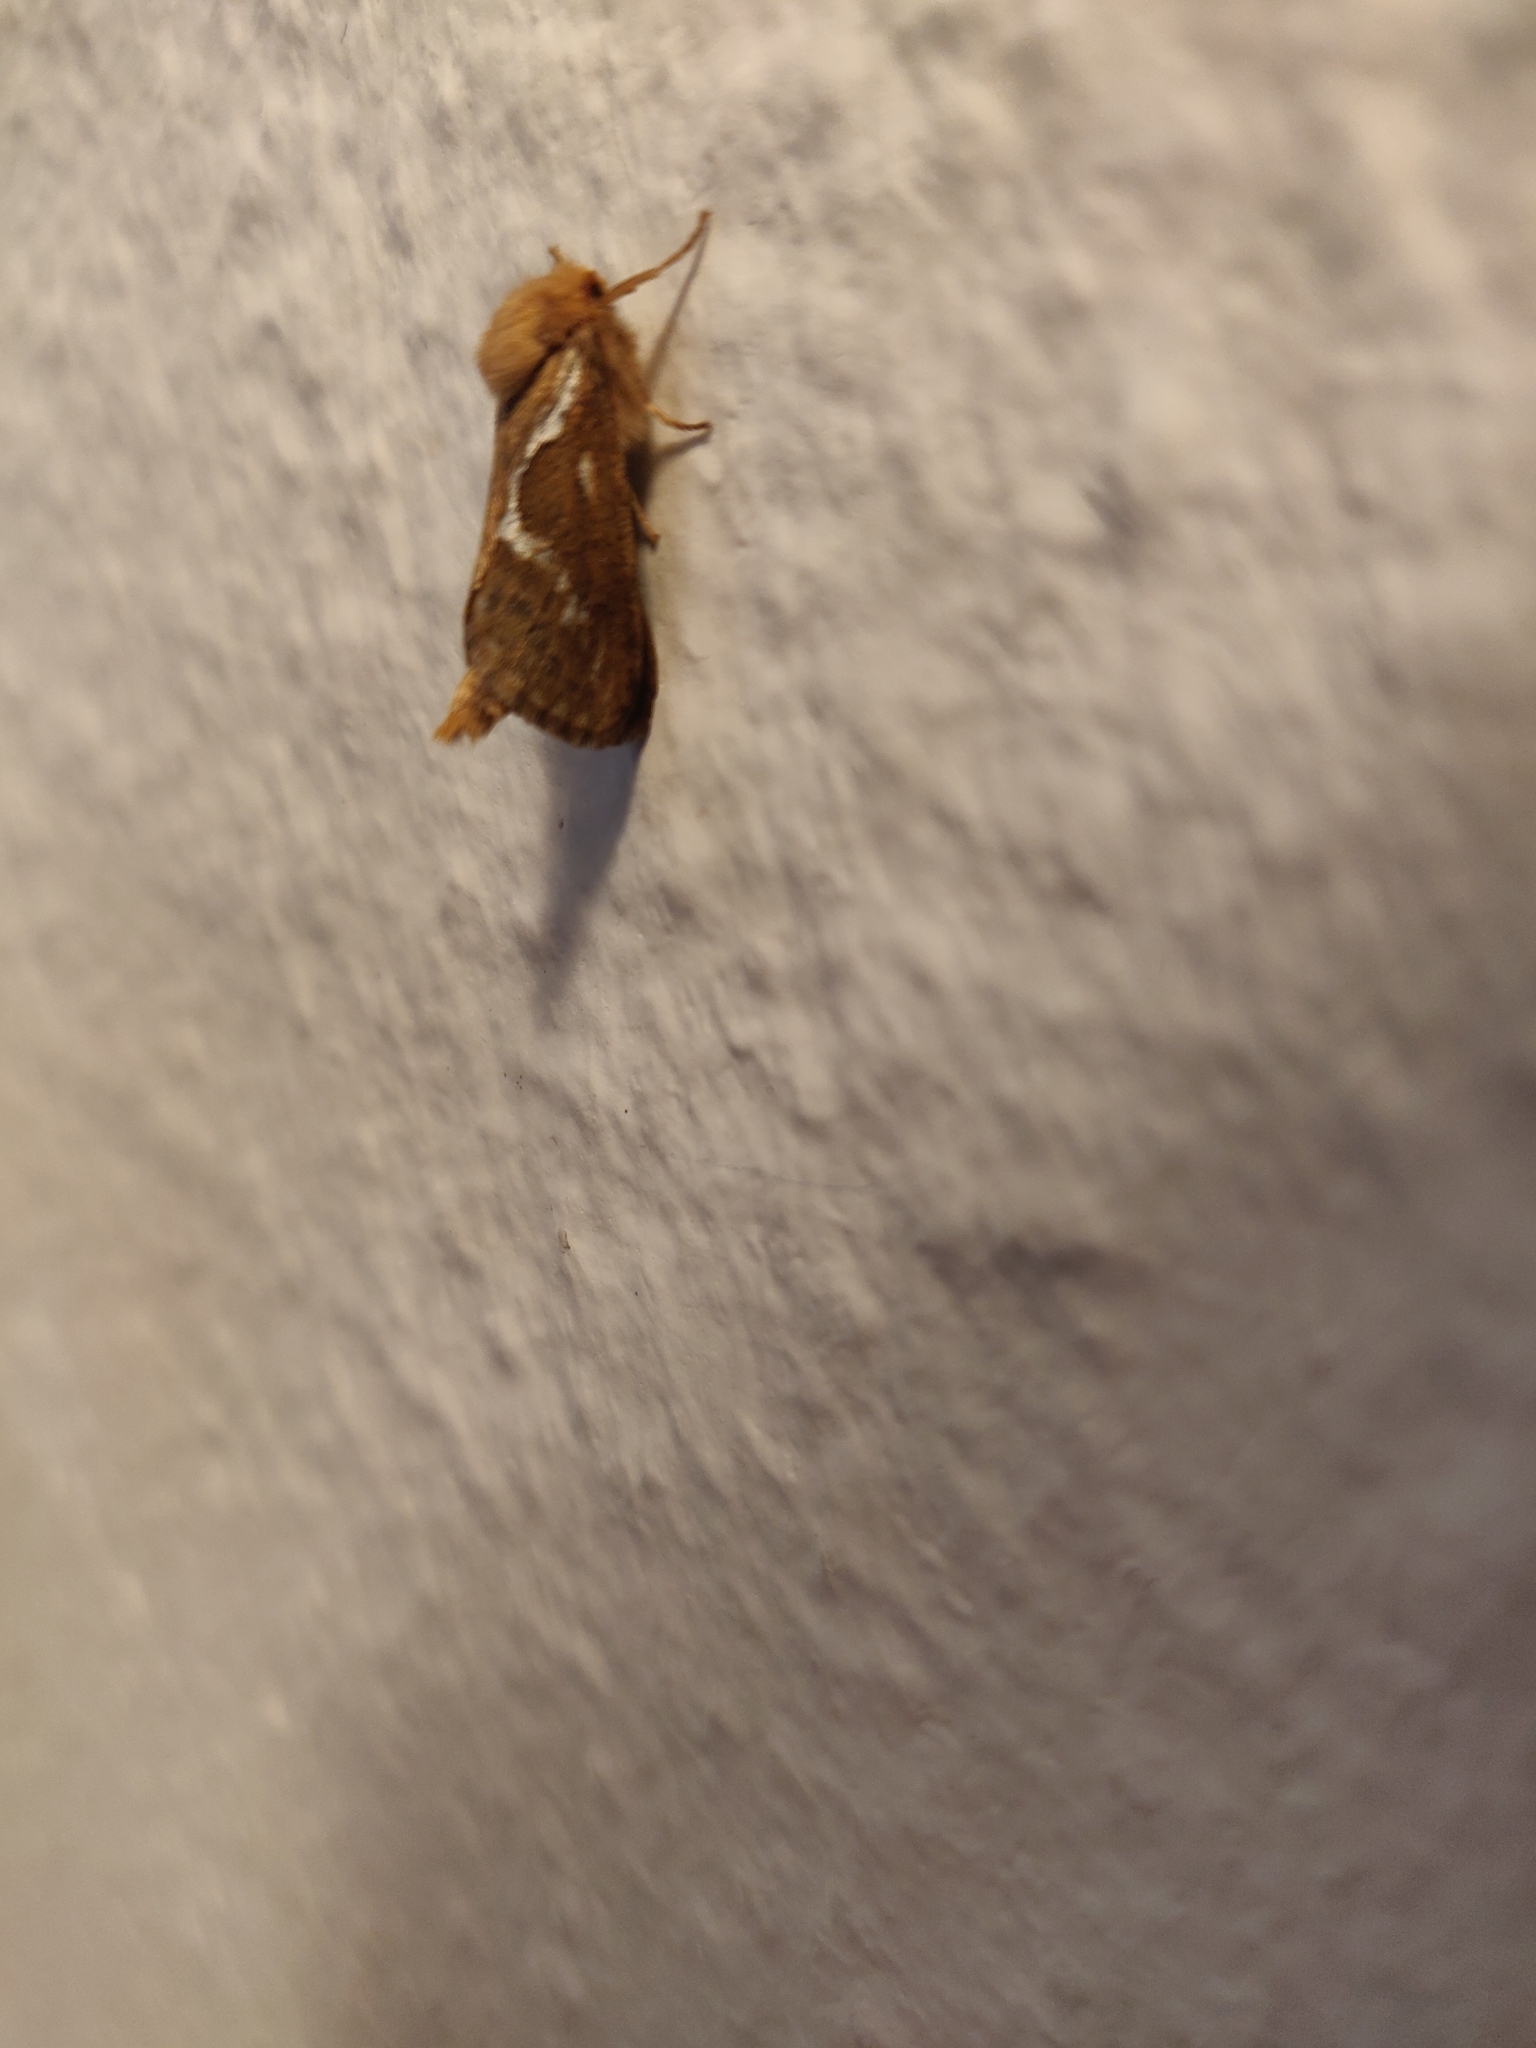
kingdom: Animalia
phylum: Arthropoda
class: Insecta
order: Lepidoptera
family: Hepialidae
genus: Korscheltellus
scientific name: Korscheltellus lupulina
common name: Common swift
